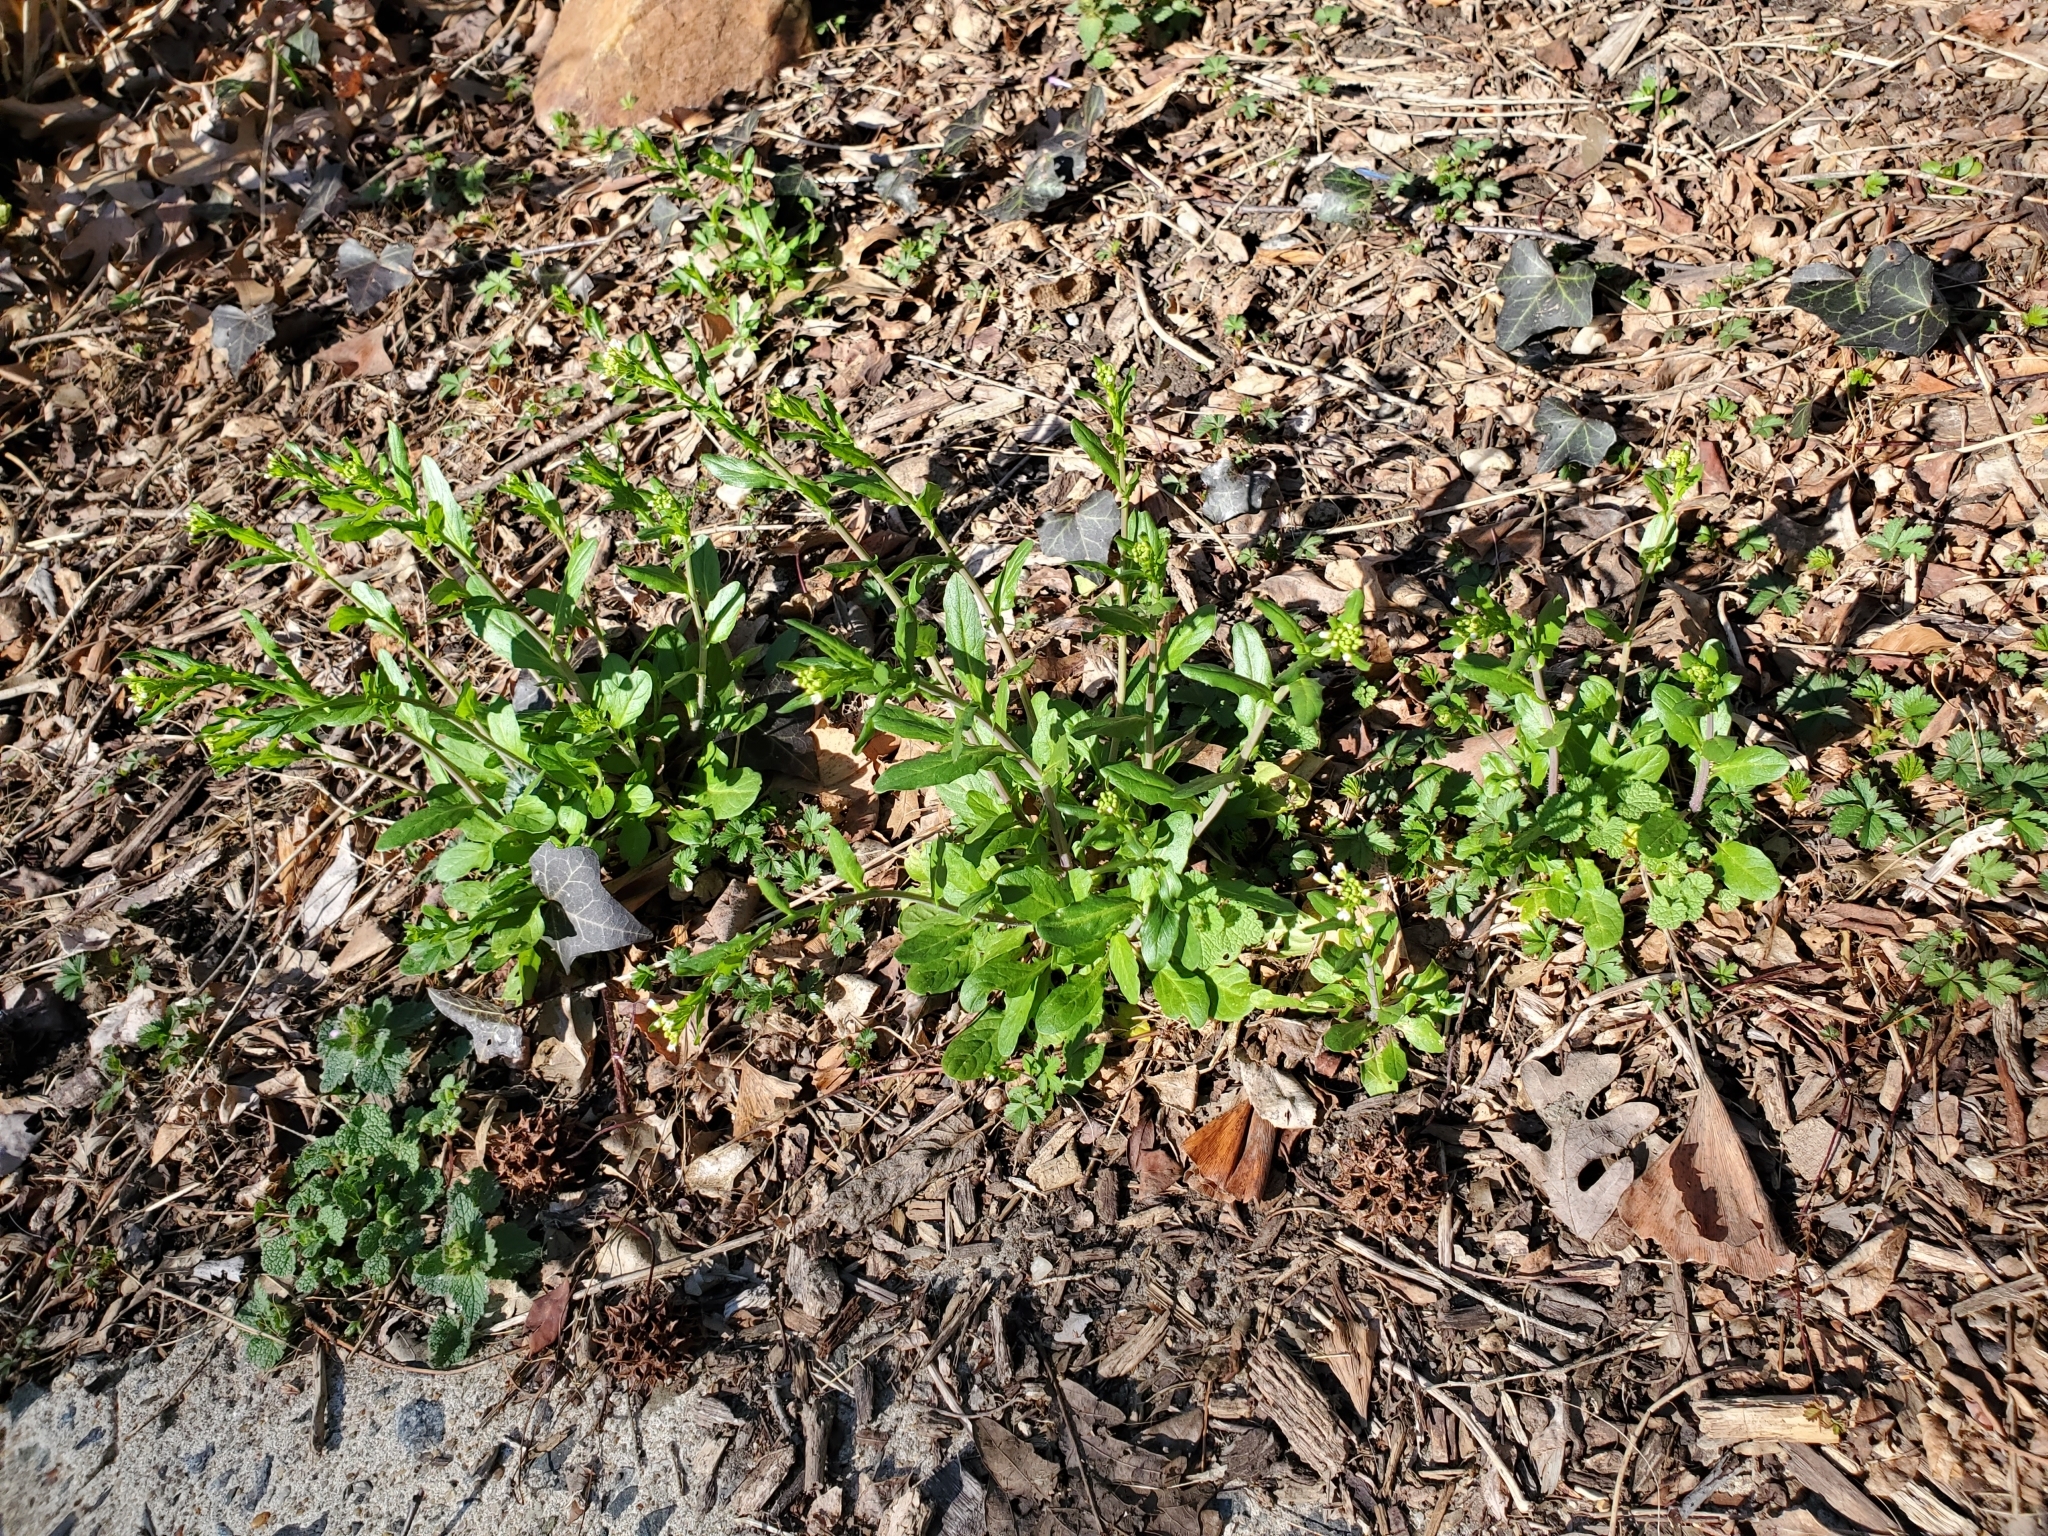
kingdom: Plantae
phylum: Tracheophyta
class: Magnoliopsida
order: Brassicales
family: Brassicaceae
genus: Mummenhoffia
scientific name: Mummenhoffia alliacea
